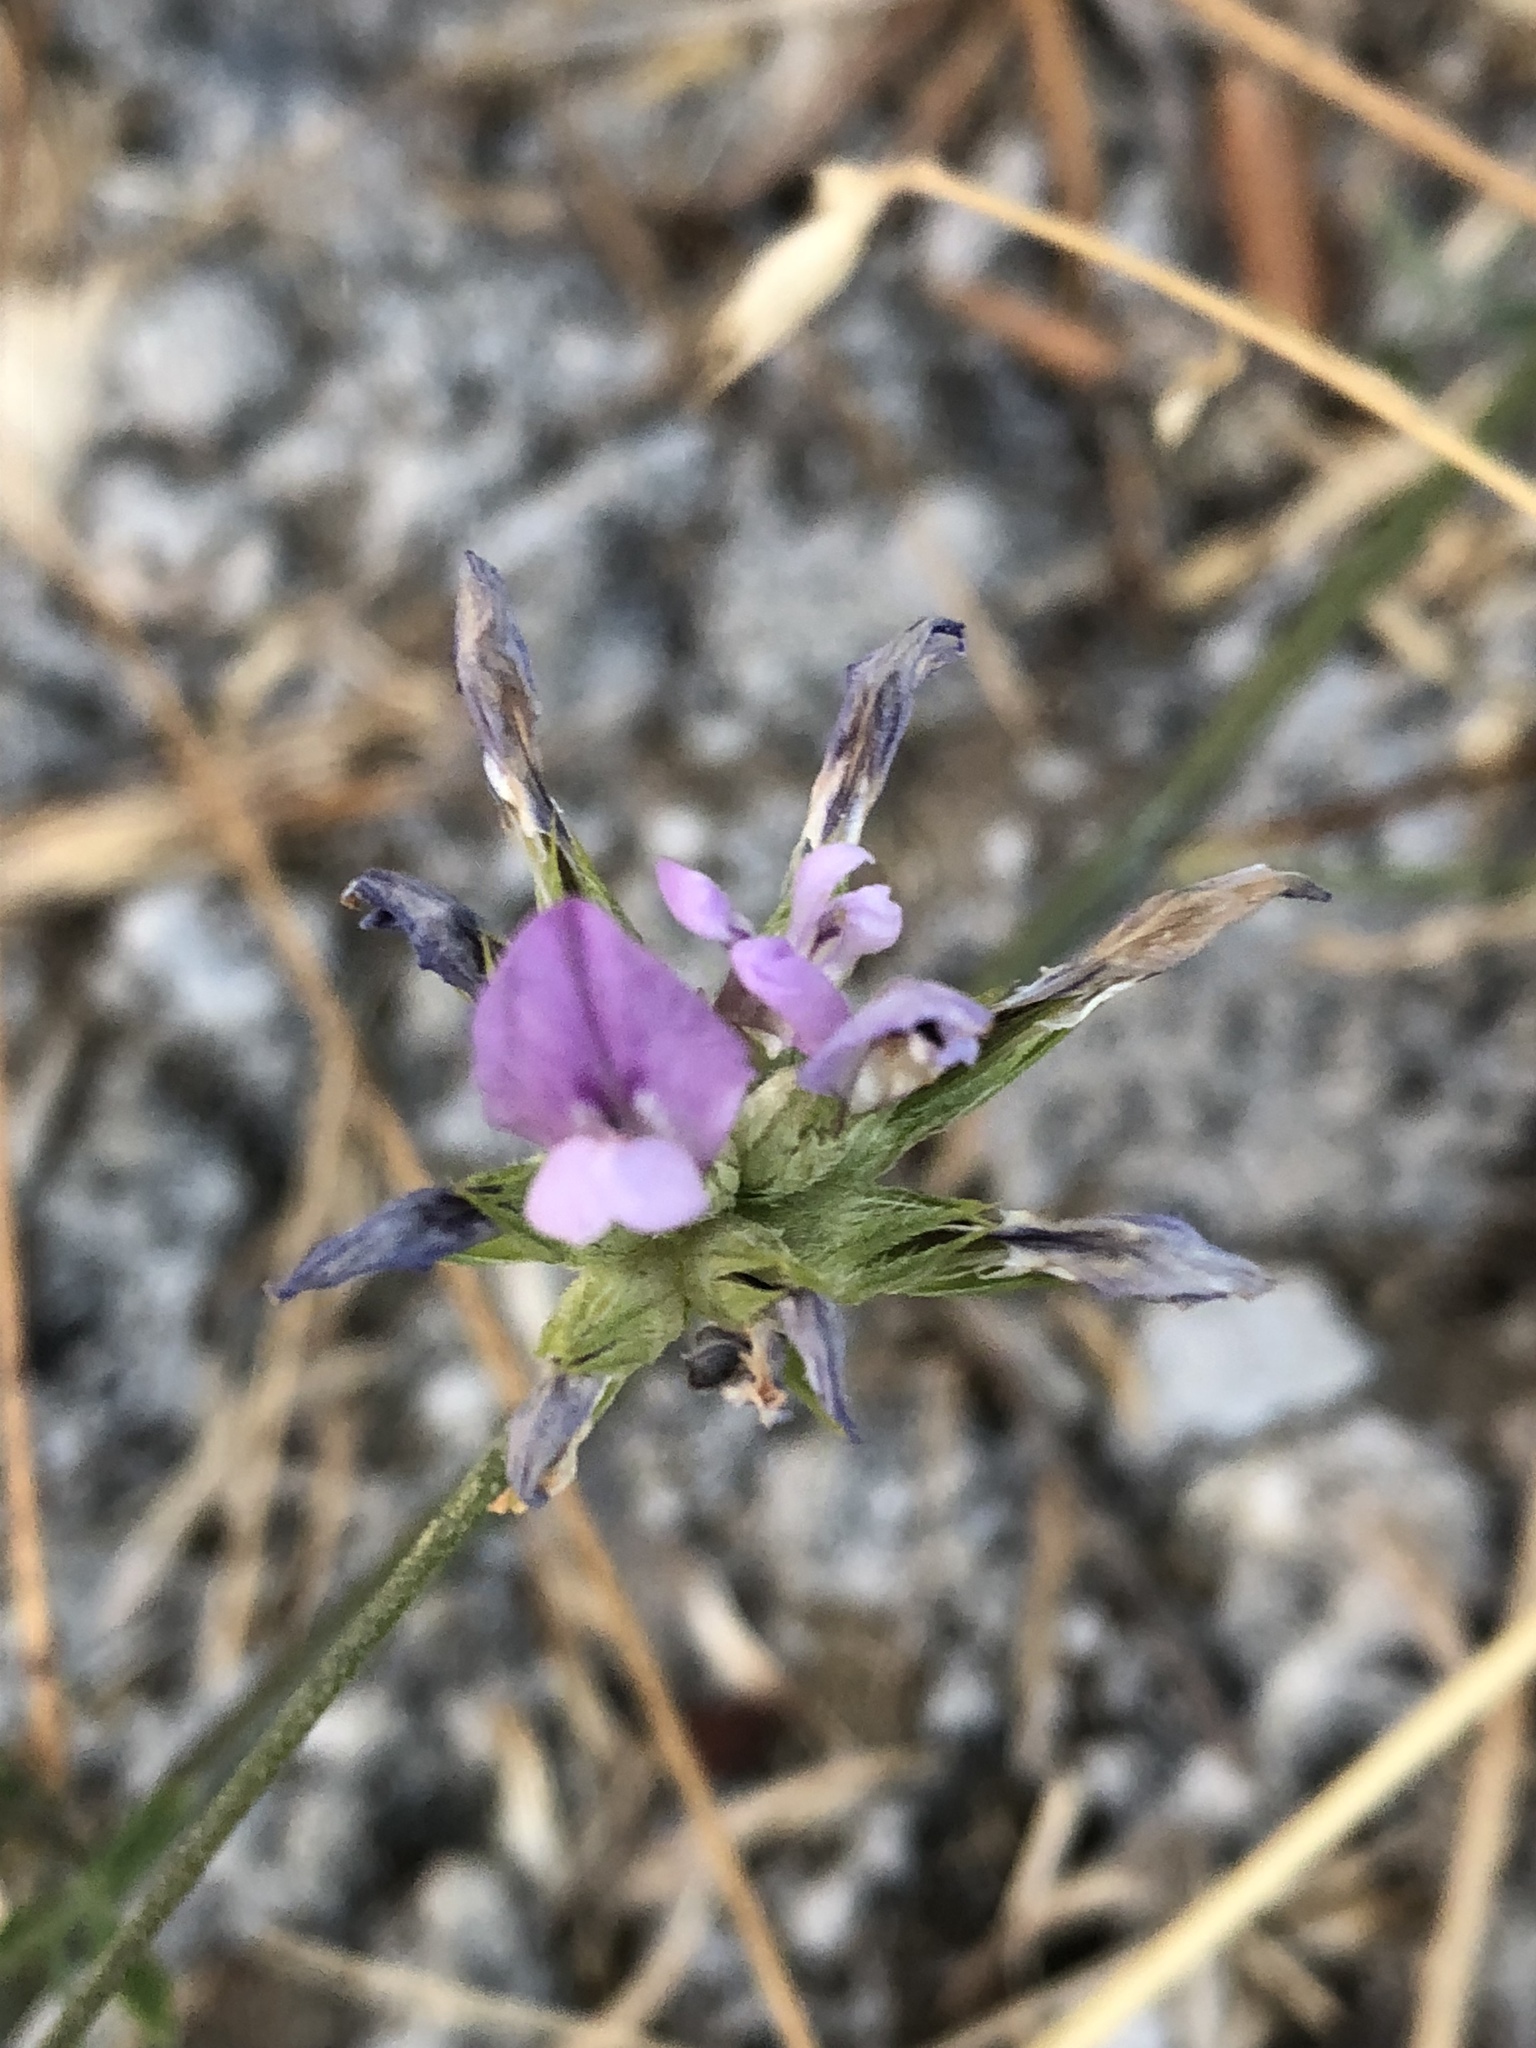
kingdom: Plantae
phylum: Tracheophyta
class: Magnoliopsida
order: Fabales
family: Fabaceae
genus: Bituminaria
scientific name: Bituminaria bituminosa
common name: Arabian pea
